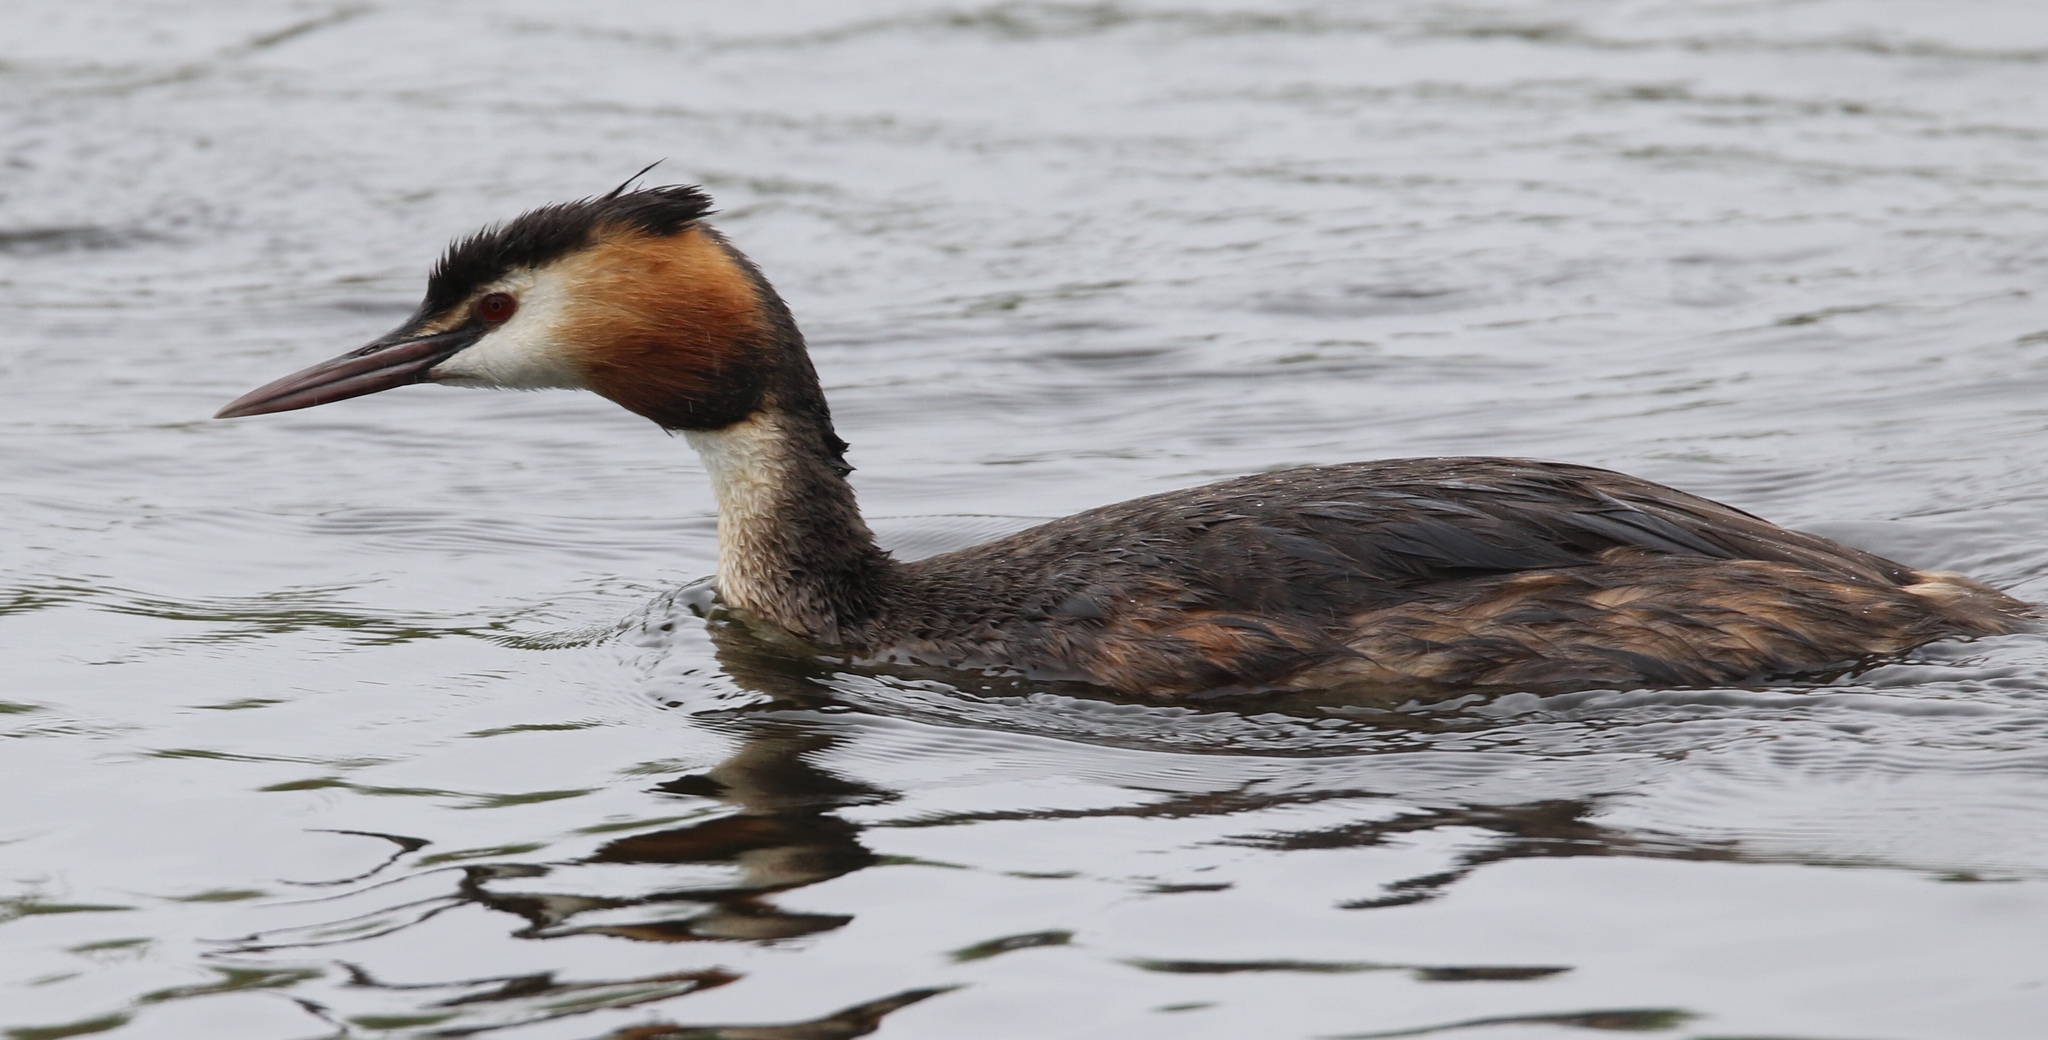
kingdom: Animalia
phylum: Chordata
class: Aves
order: Podicipediformes
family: Podicipedidae
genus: Podiceps
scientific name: Podiceps cristatus
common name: Great crested grebe
